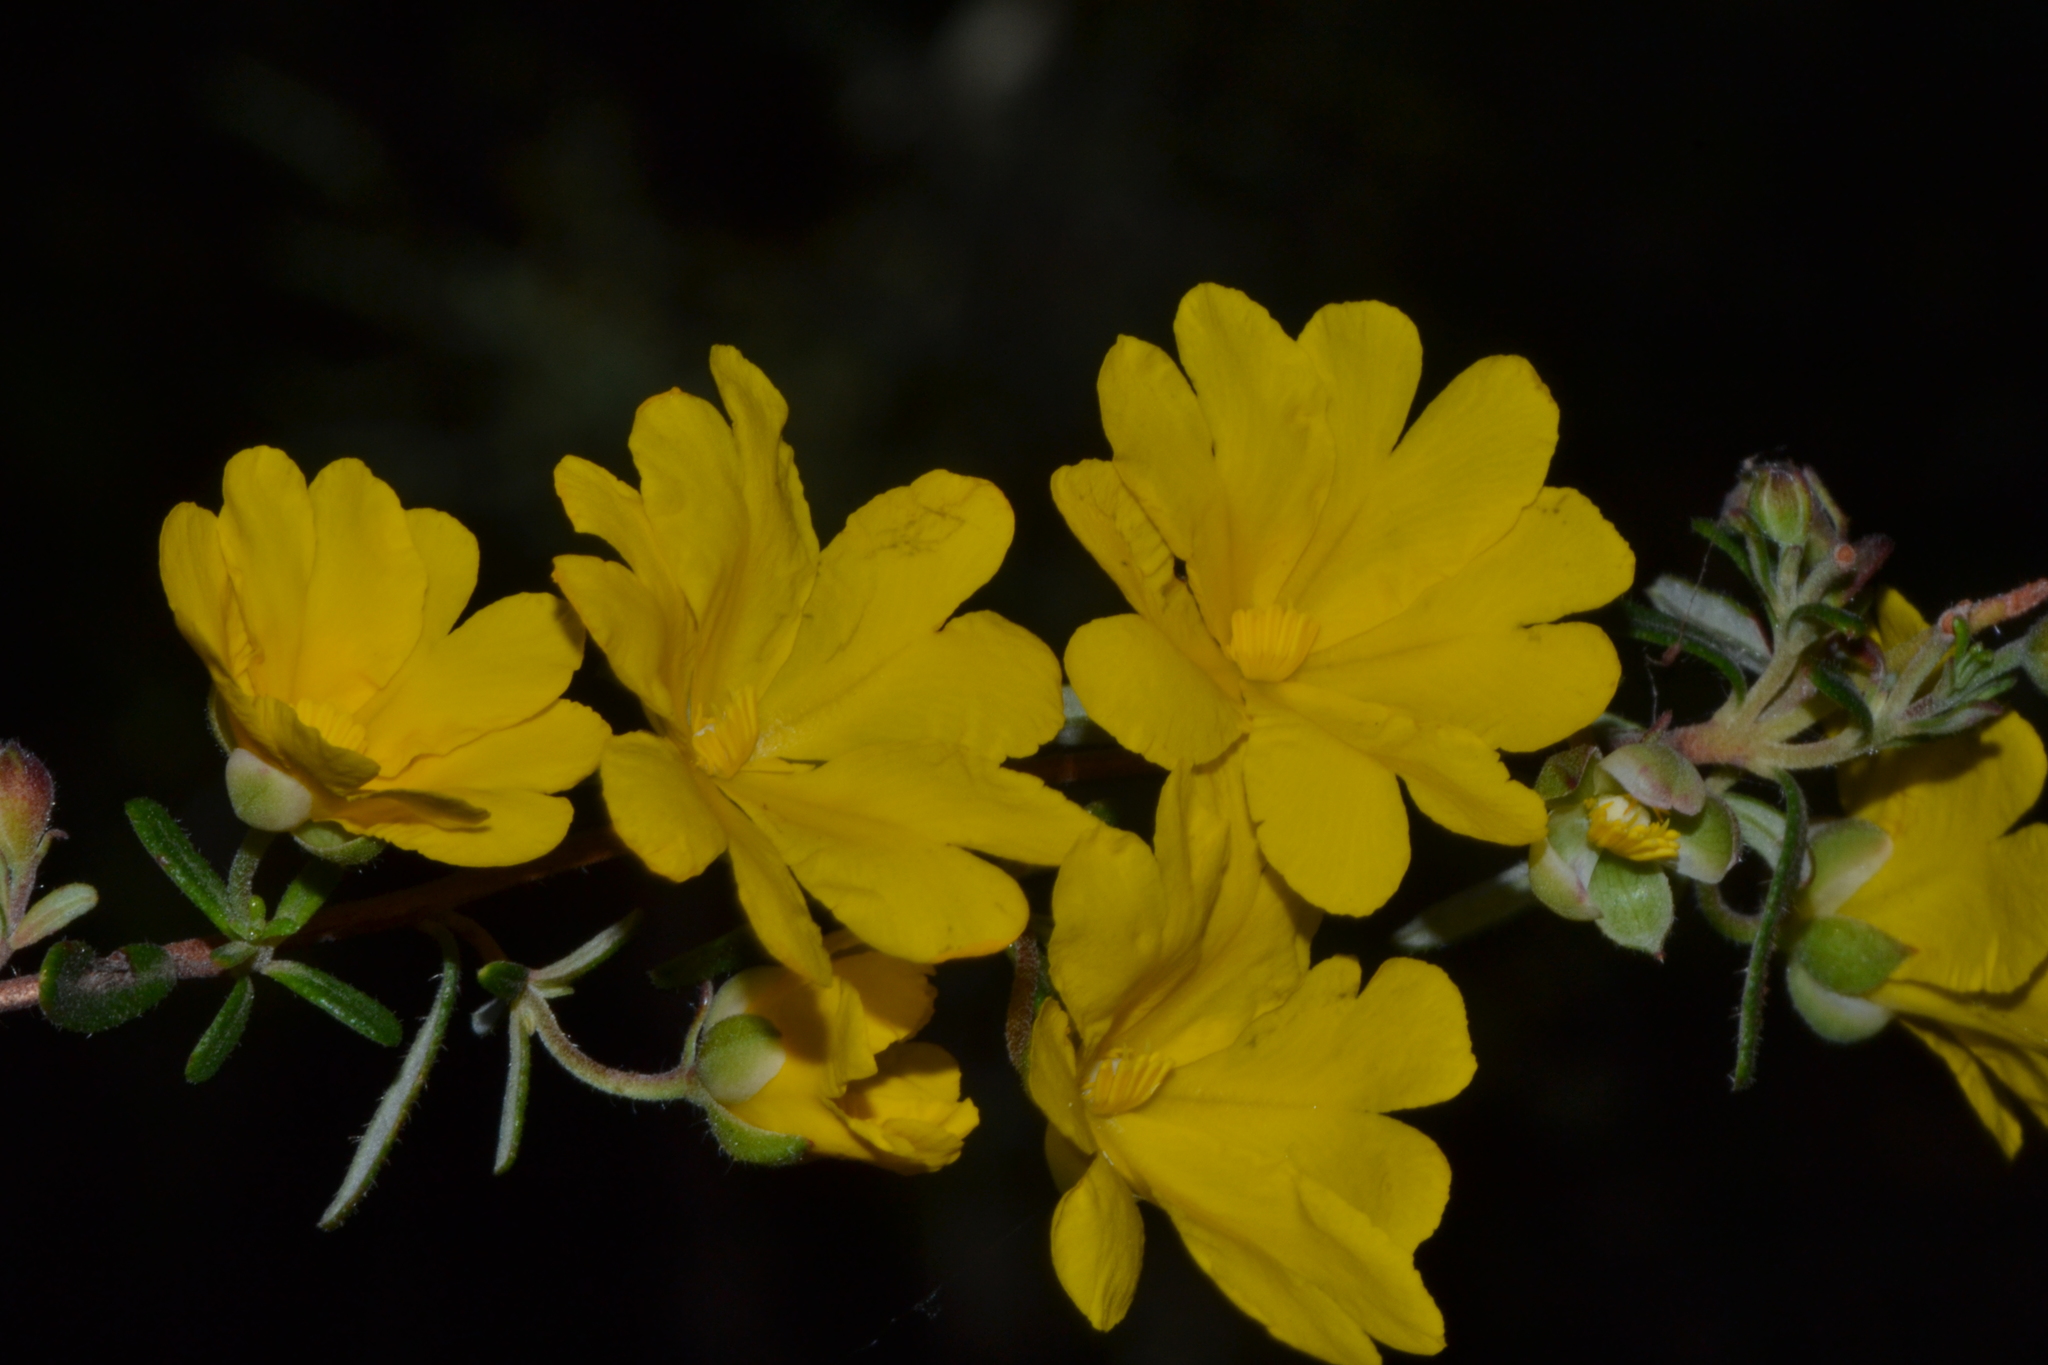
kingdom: Plantae
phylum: Tracheophyta
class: Magnoliopsida
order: Dilleniales
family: Dilleniaceae
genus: Hibbertia
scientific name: Hibbertia hypericoides
